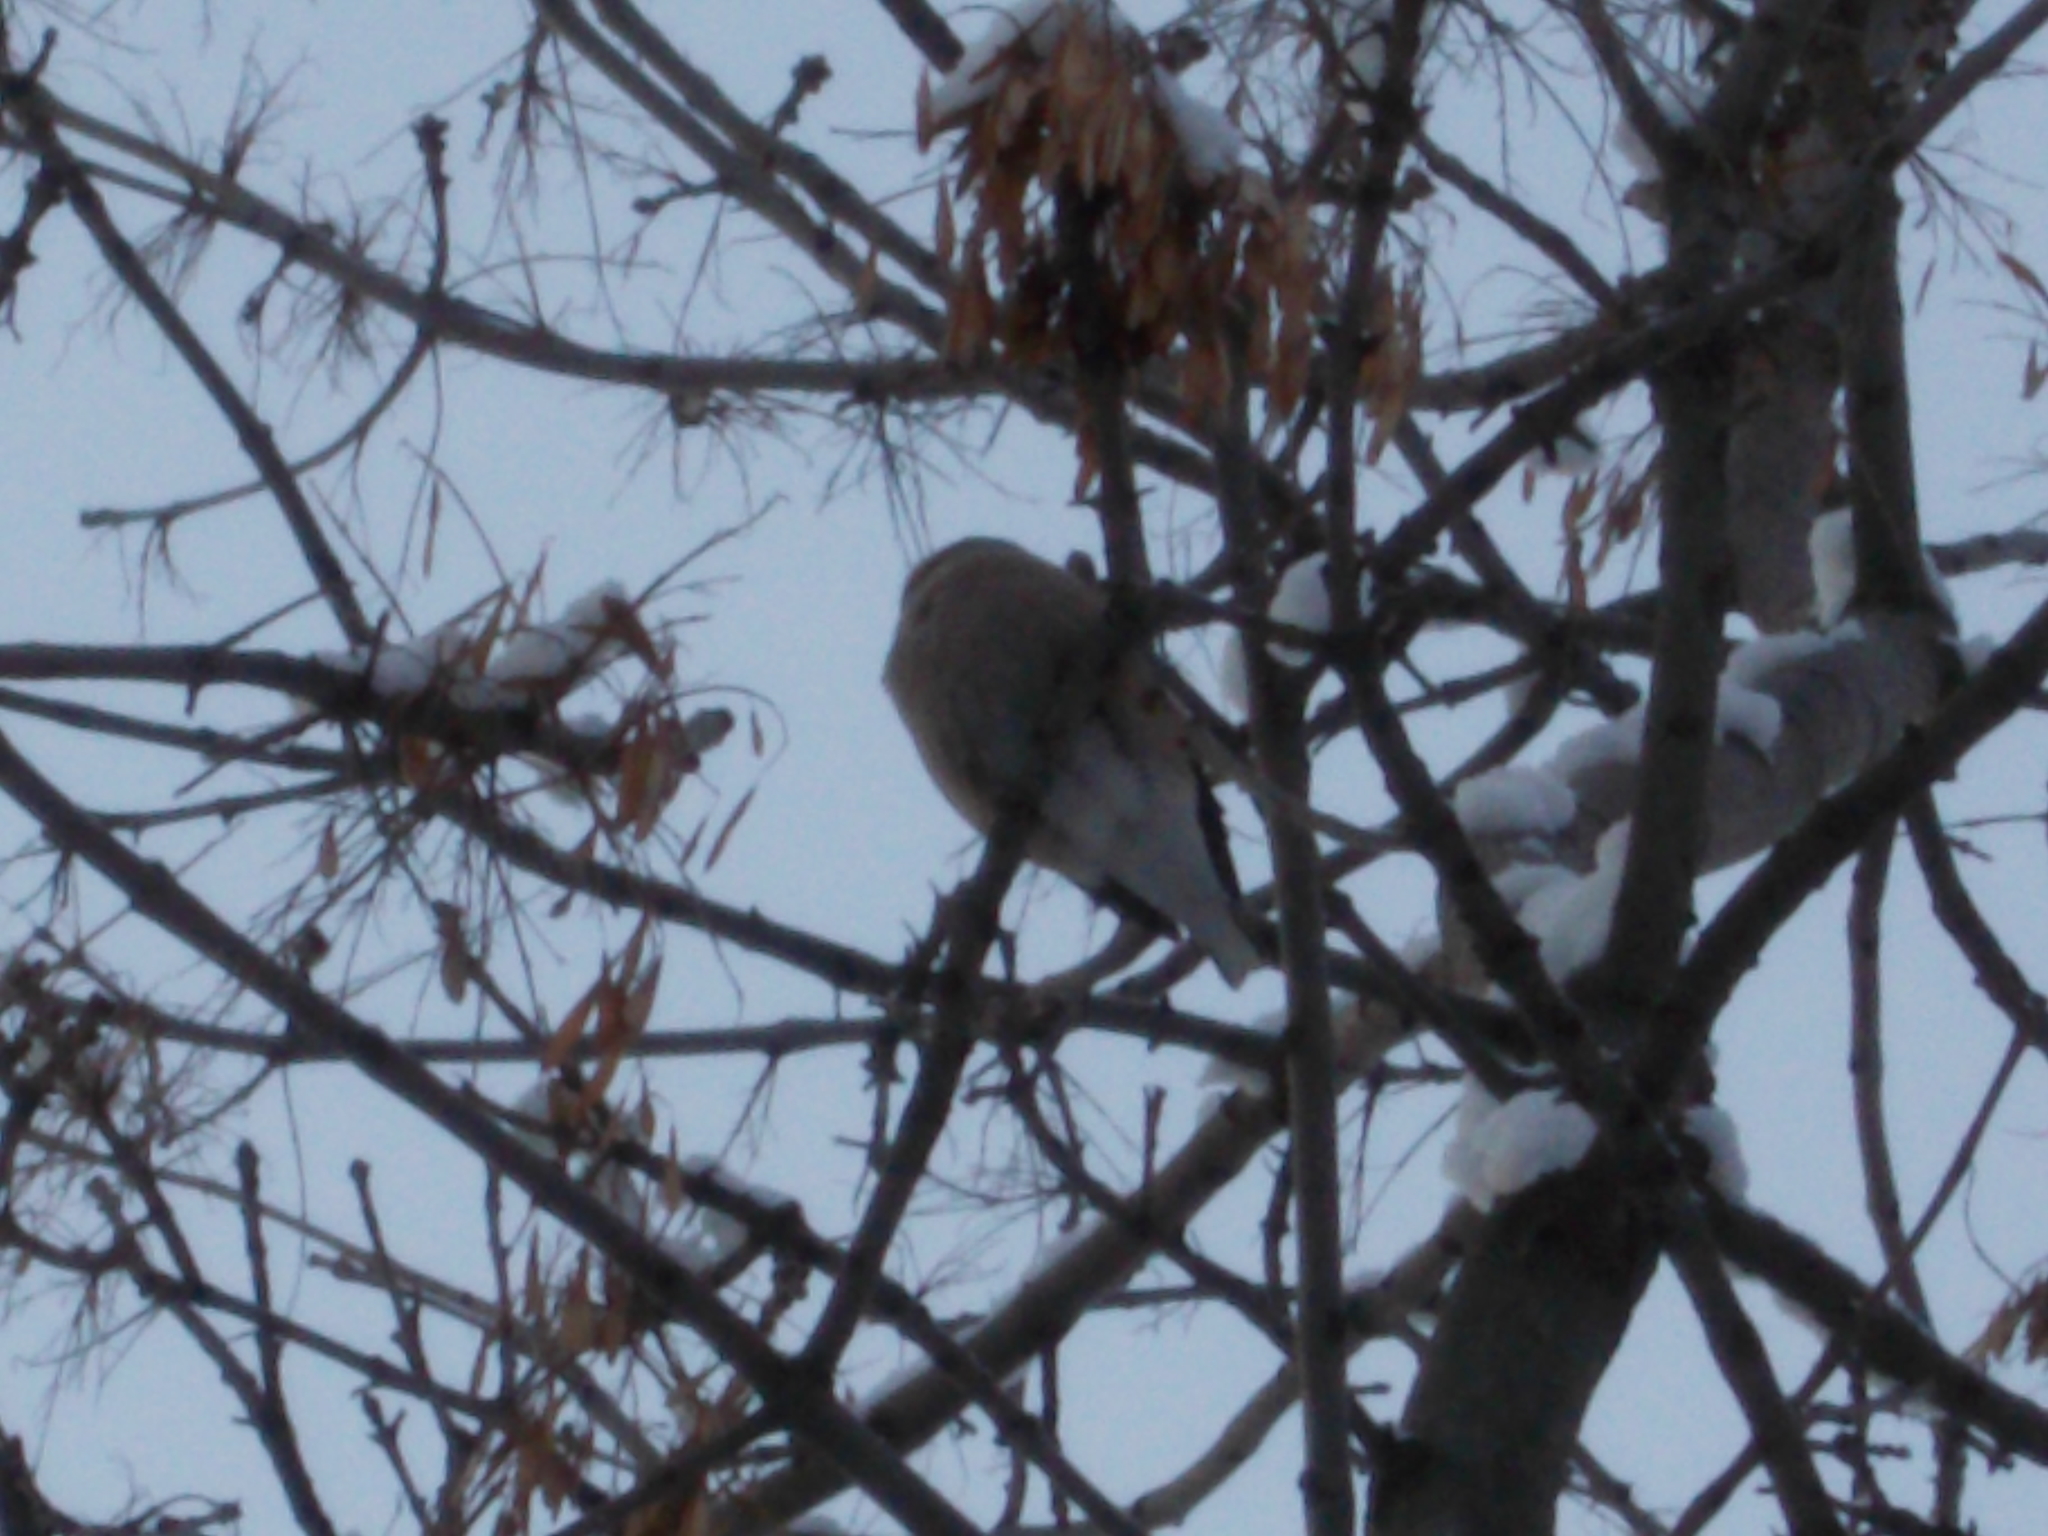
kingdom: Animalia
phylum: Chordata
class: Aves
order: Passeriformes
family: Fringillidae
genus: Coccothraustes
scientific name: Coccothraustes coccothraustes
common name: Hawfinch
